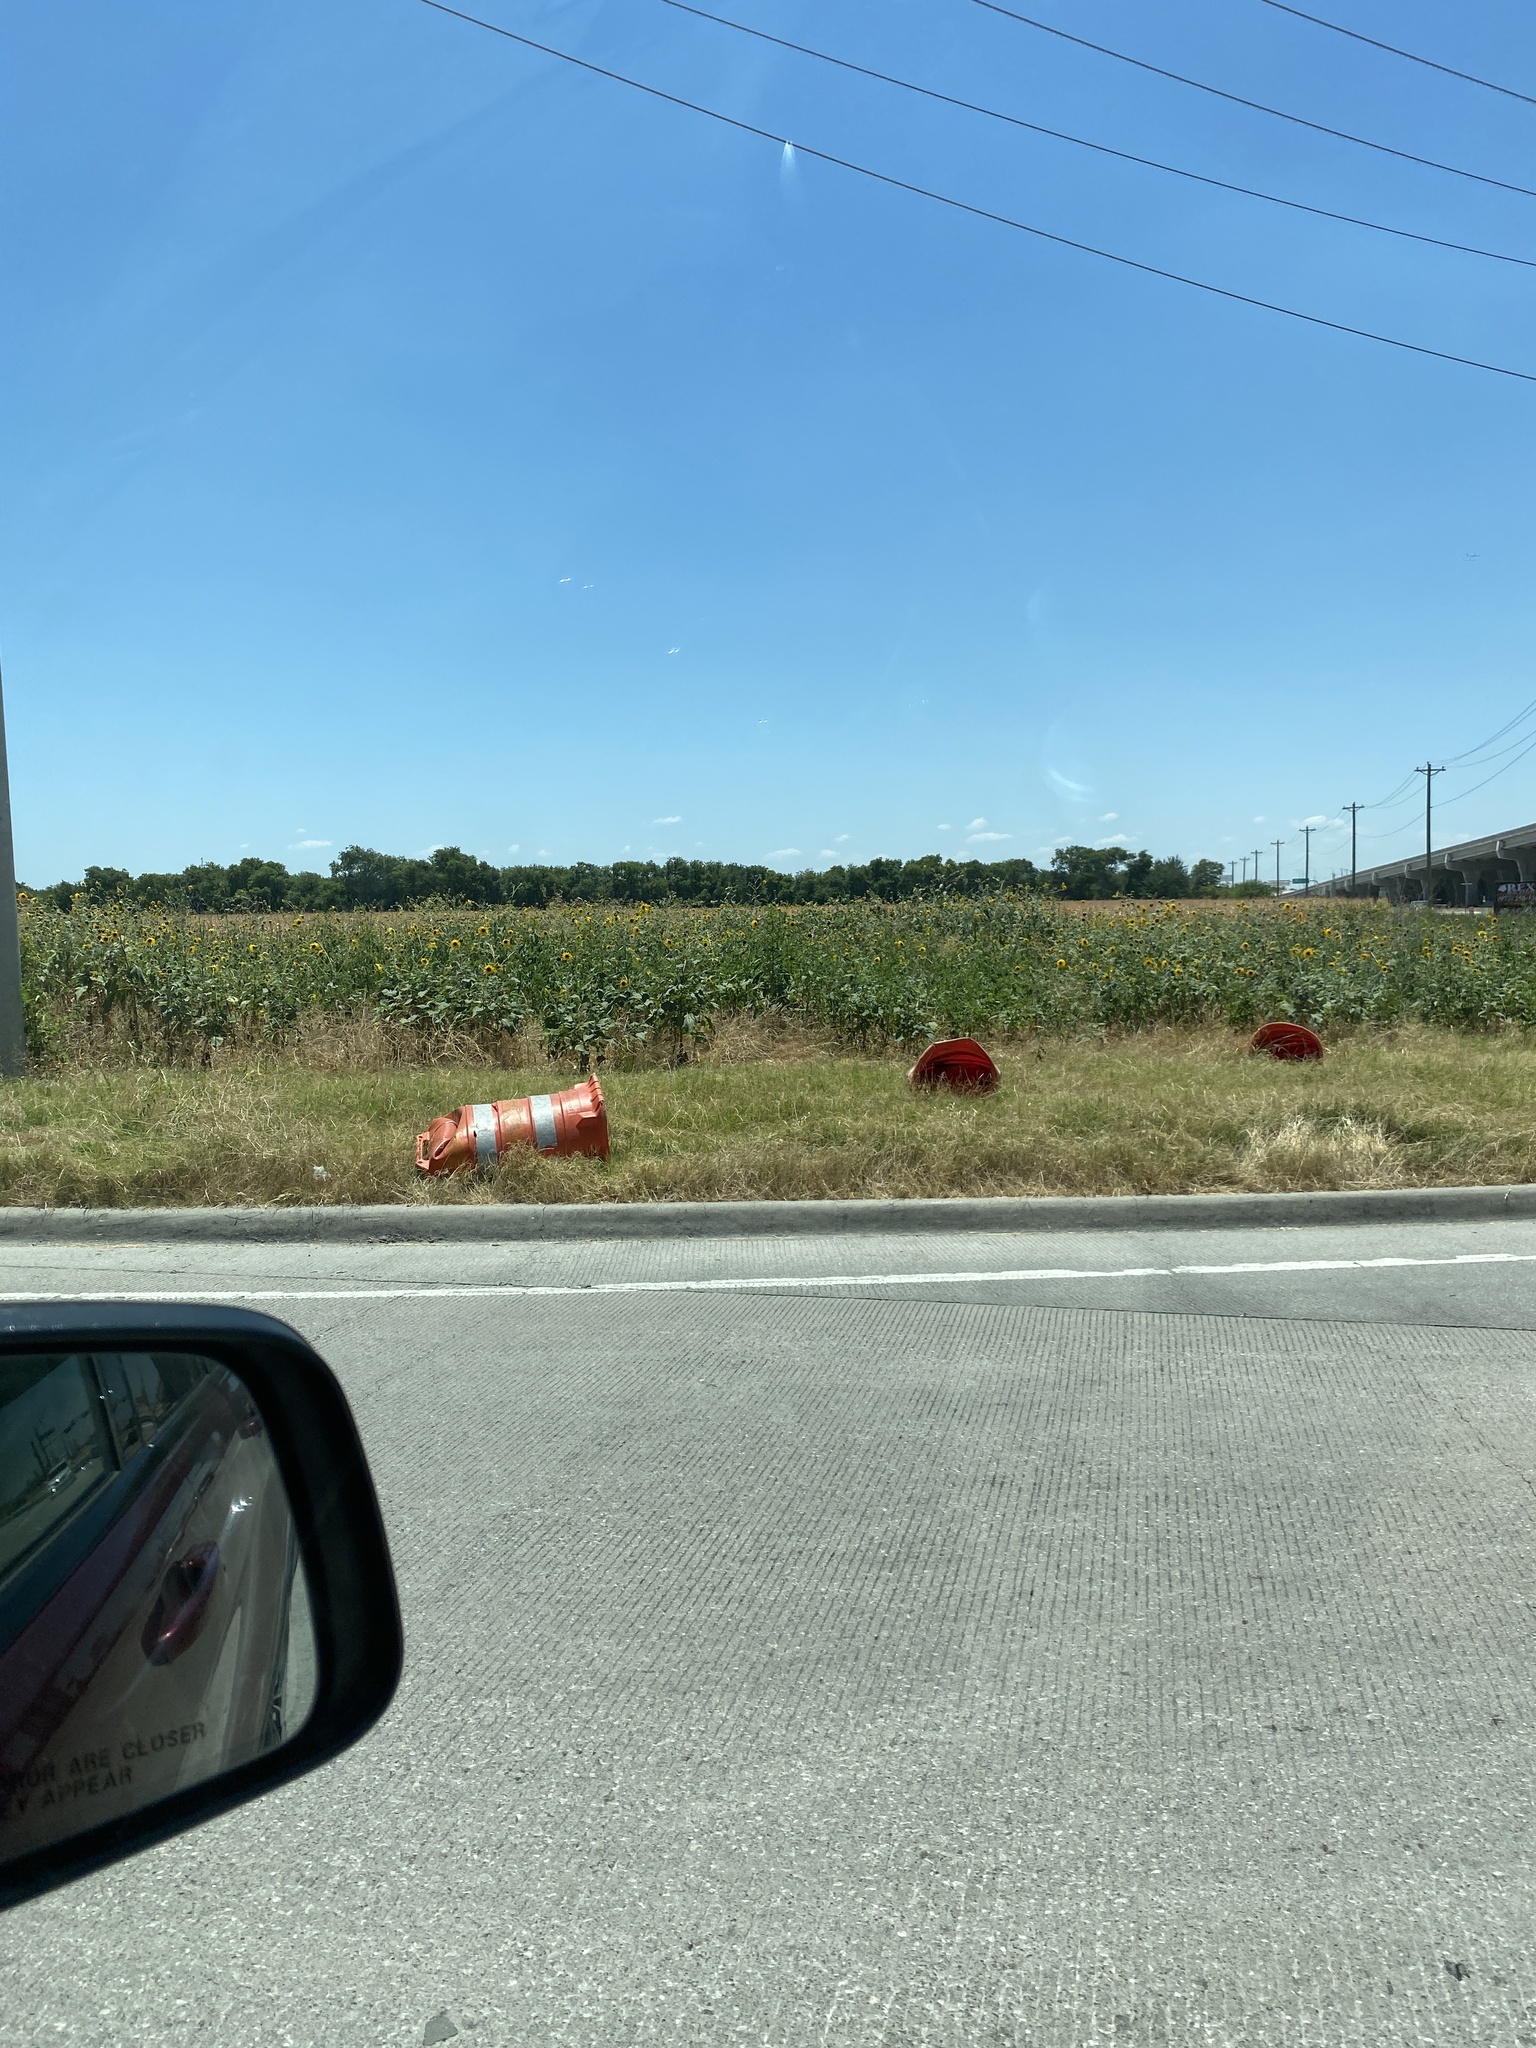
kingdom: Plantae
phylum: Tracheophyta
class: Magnoliopsida
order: Asterales
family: Asteraceae
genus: Helianthus
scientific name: Helianthus annuus
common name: Sunflower
